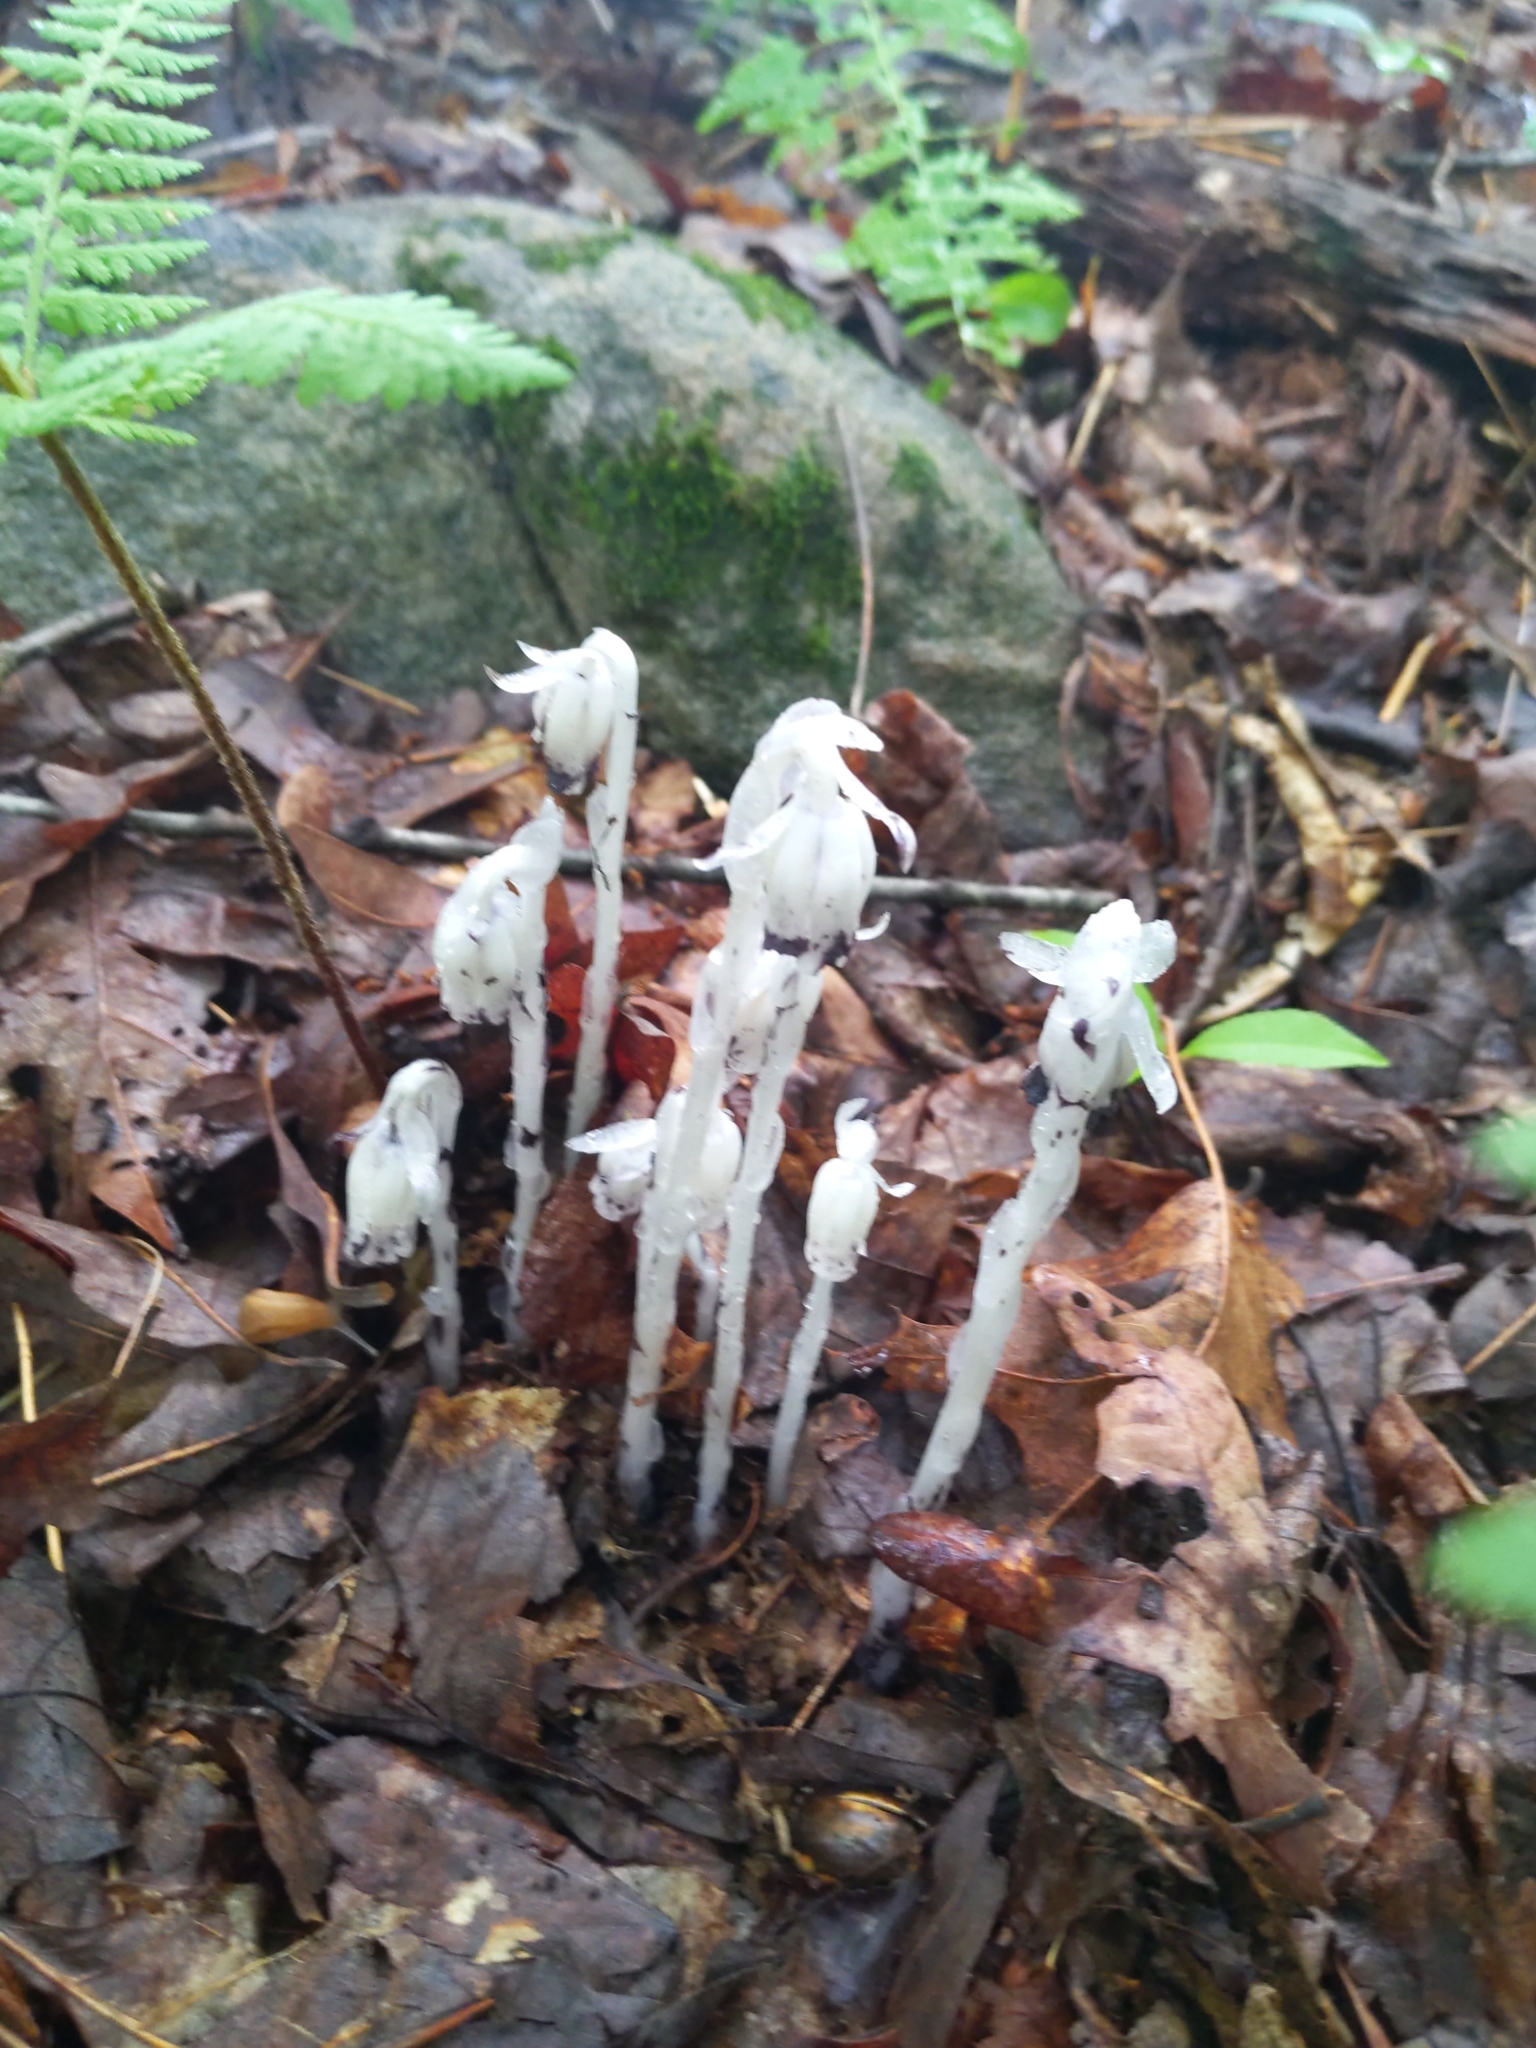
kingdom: Plantae
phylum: Tracheophyta
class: Magnoliopsida
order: Ericales
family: Ericaceae
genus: Monotropa
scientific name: Monotropa uniflora
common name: Convulsion root
